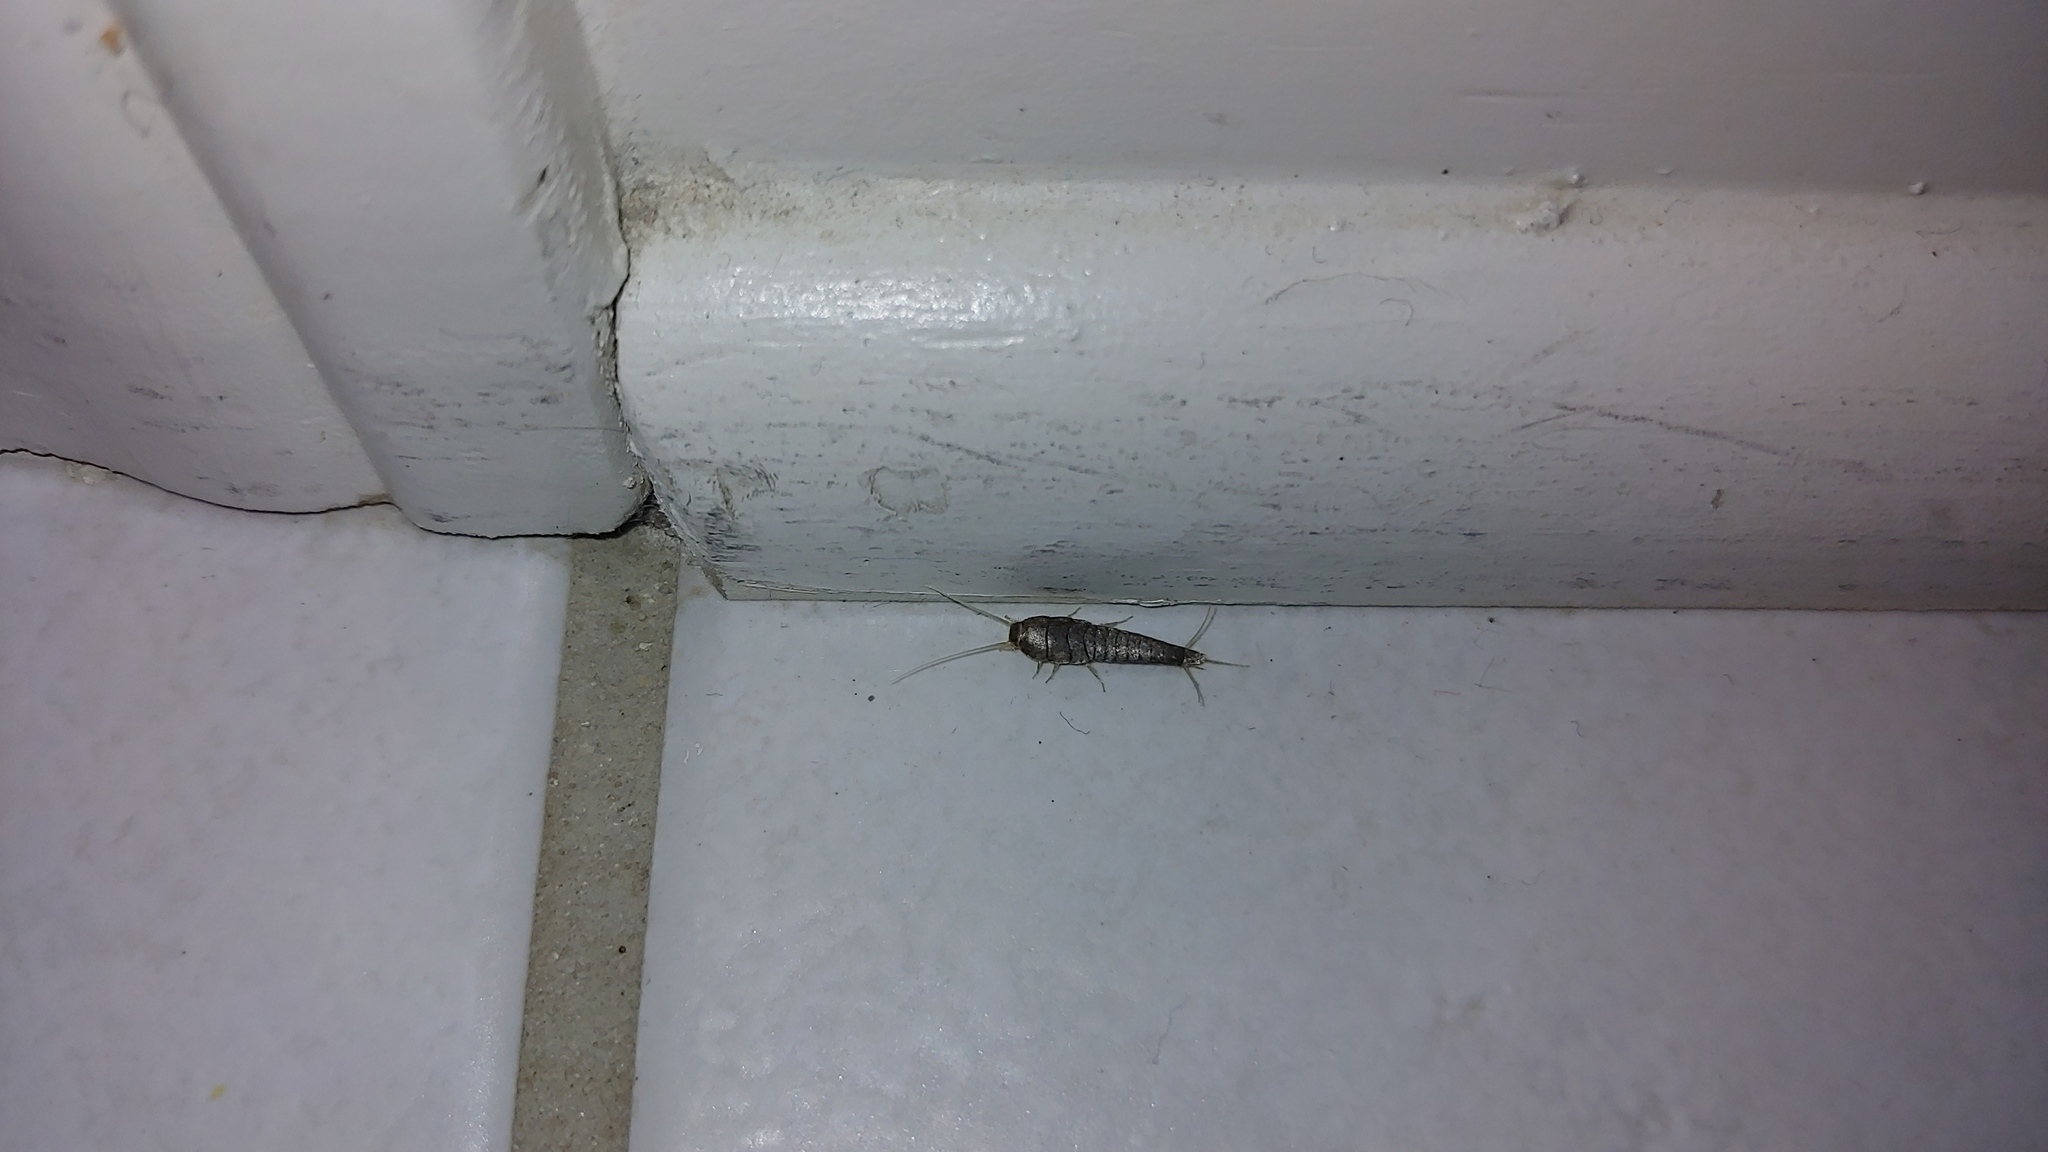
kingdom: Animalia
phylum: Arthropoda
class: Insecta
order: Zygentoma
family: Lepismatidae
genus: Lepisma
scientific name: Lepisma saccharinum
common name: Silverfish
